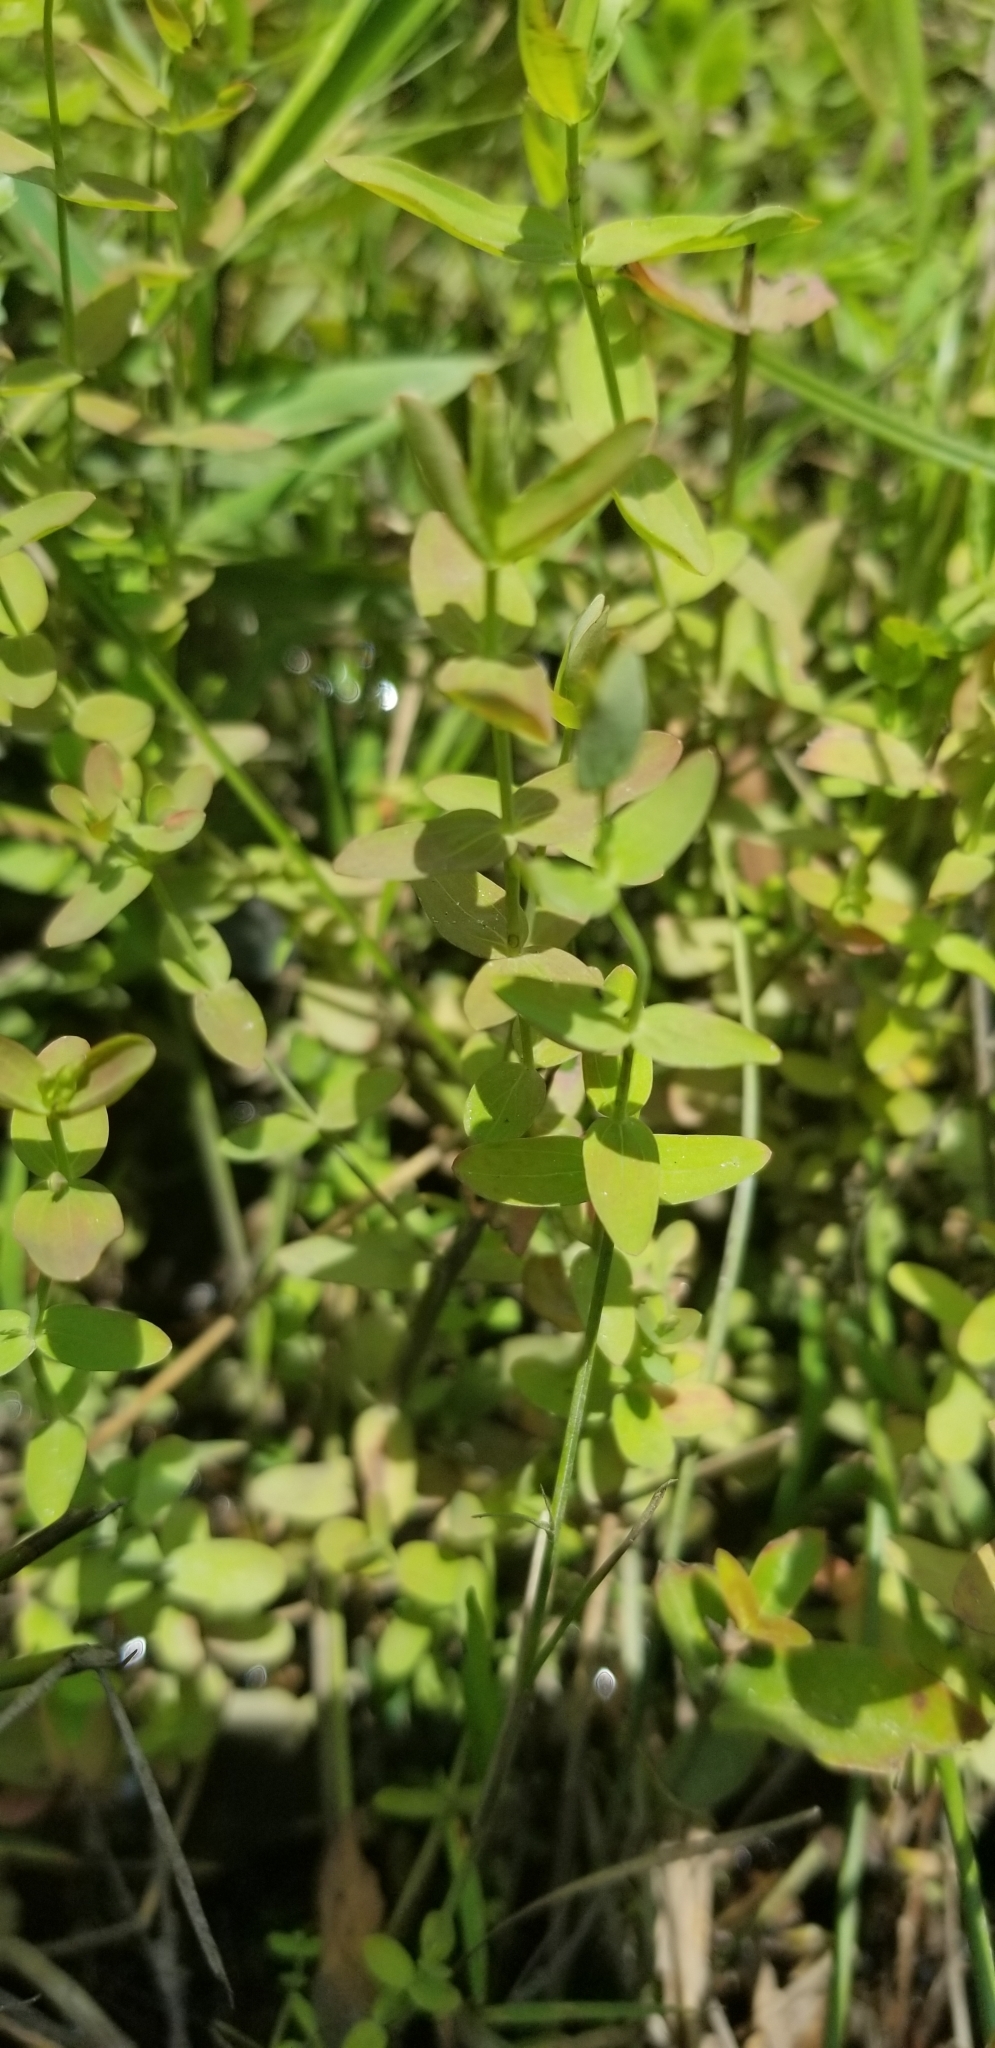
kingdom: Plantae
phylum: Tracheophyta
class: Magnoliopsida
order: Malpighiales
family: Hypericaceae
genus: Hypericum
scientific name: Hypericum mutilum
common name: Dwarf st. john's-wort
